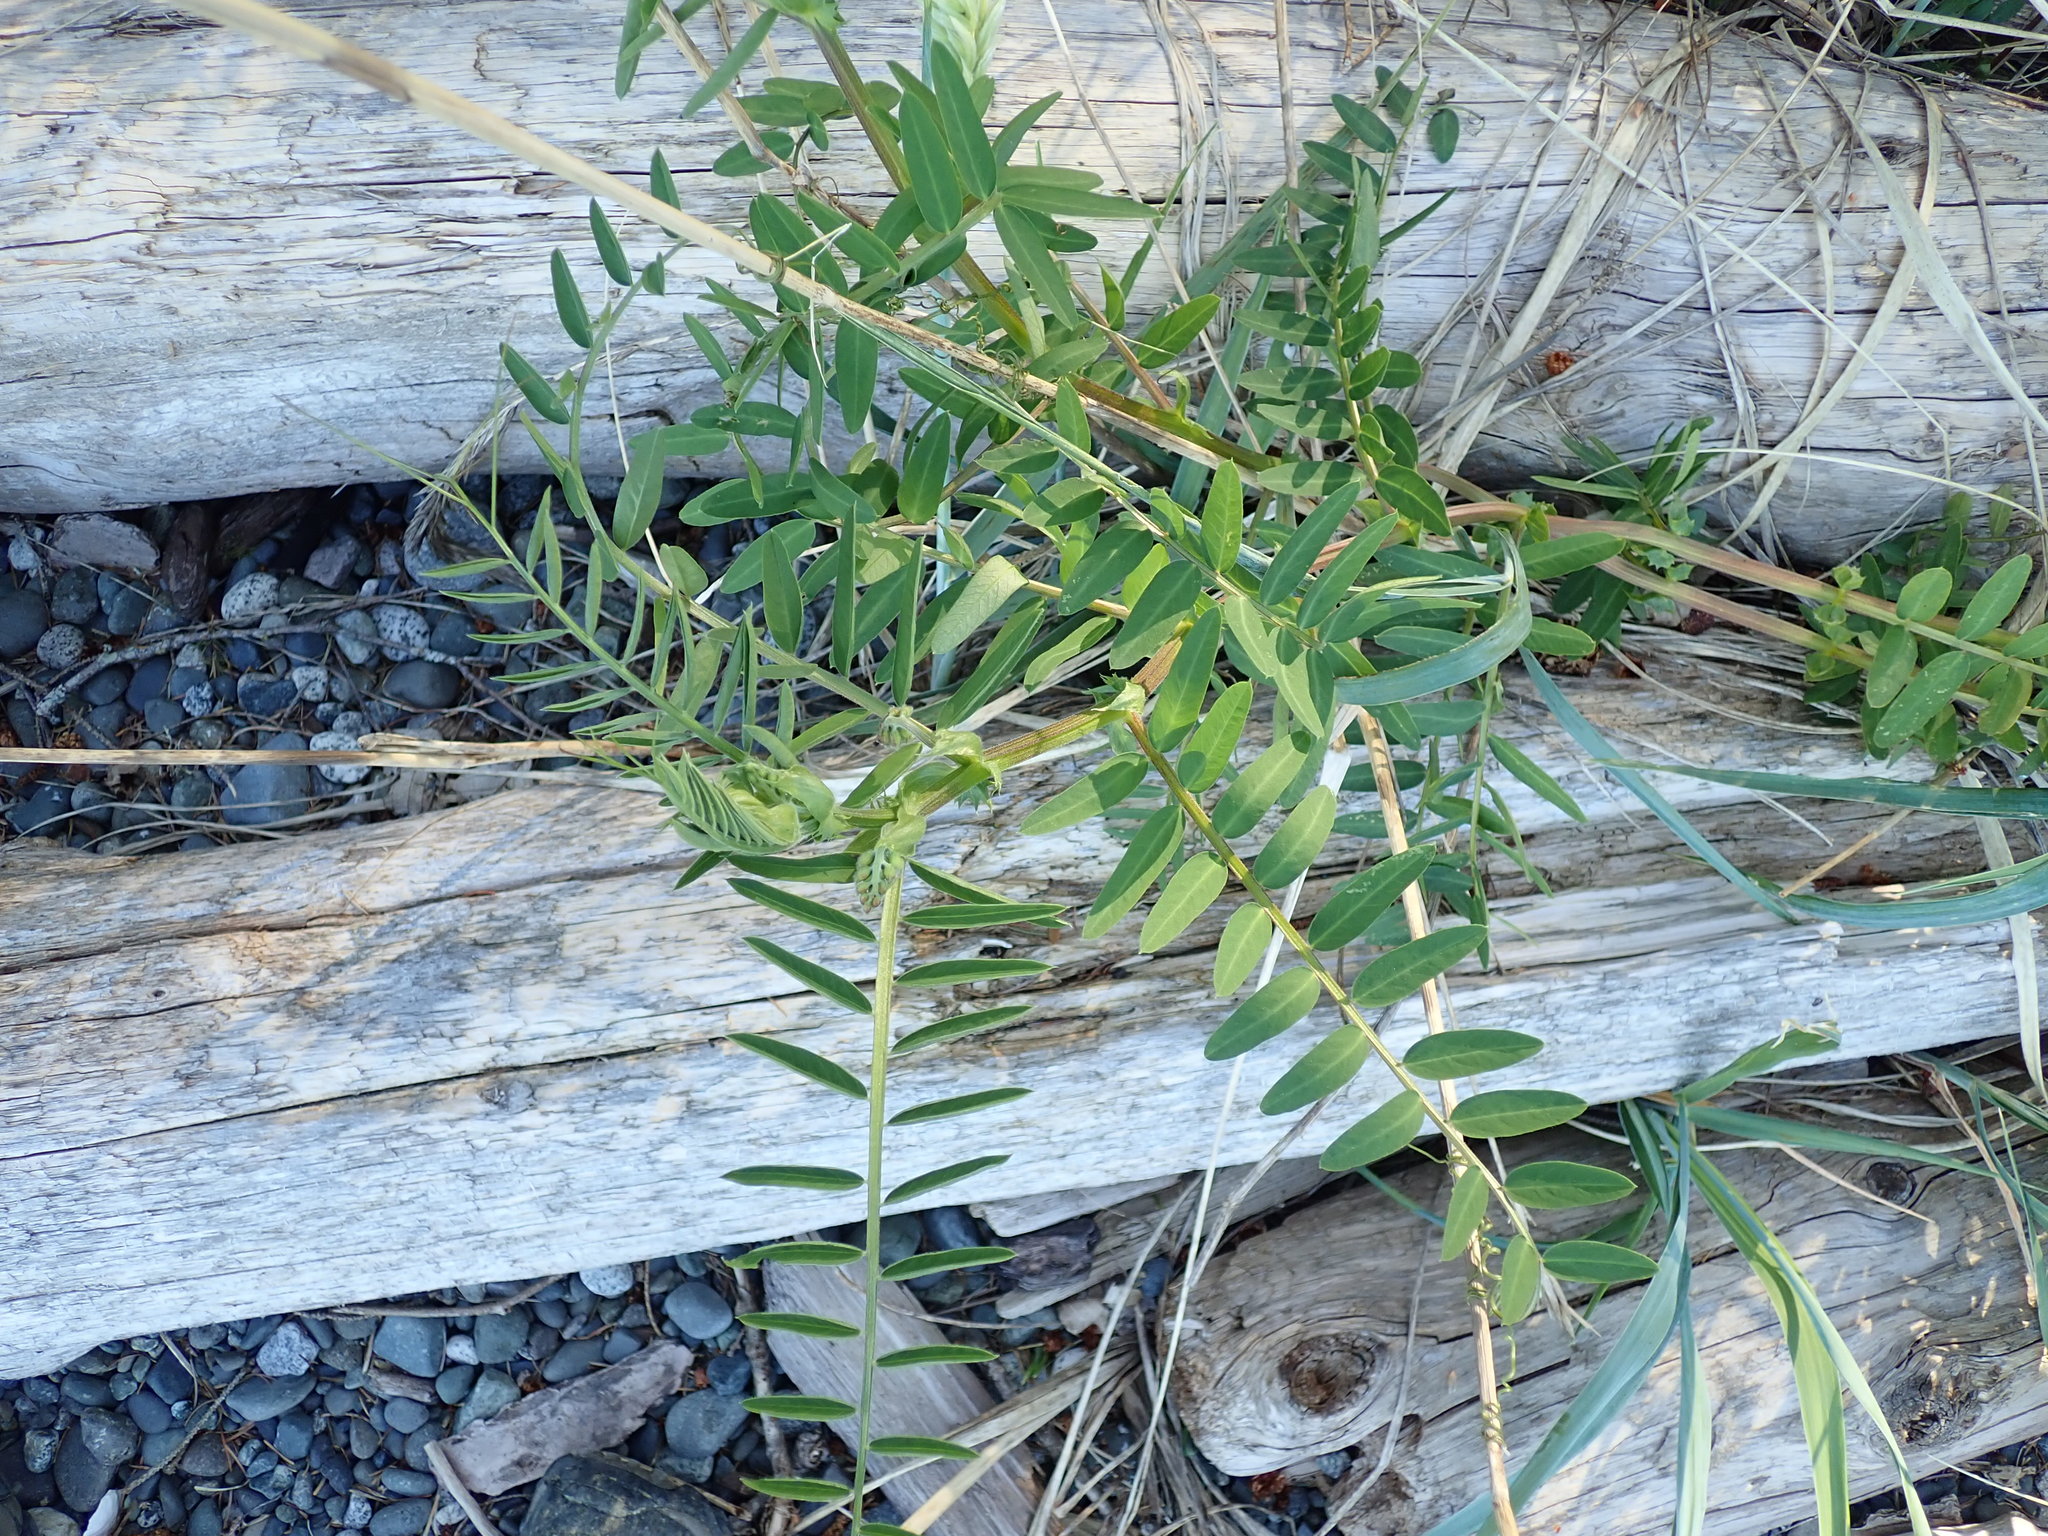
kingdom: Plantae
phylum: Tracheophyta
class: Magnoliopsida
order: Fabales
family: Fabaceae
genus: Vicia
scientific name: Vicia
